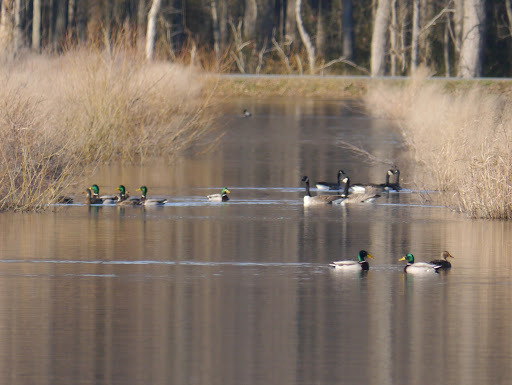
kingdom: Animalia
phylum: Chordata
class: Aves
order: Anseriformes
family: Anatidae
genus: Anas
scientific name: Anas platyrhynchos
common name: Mallard
